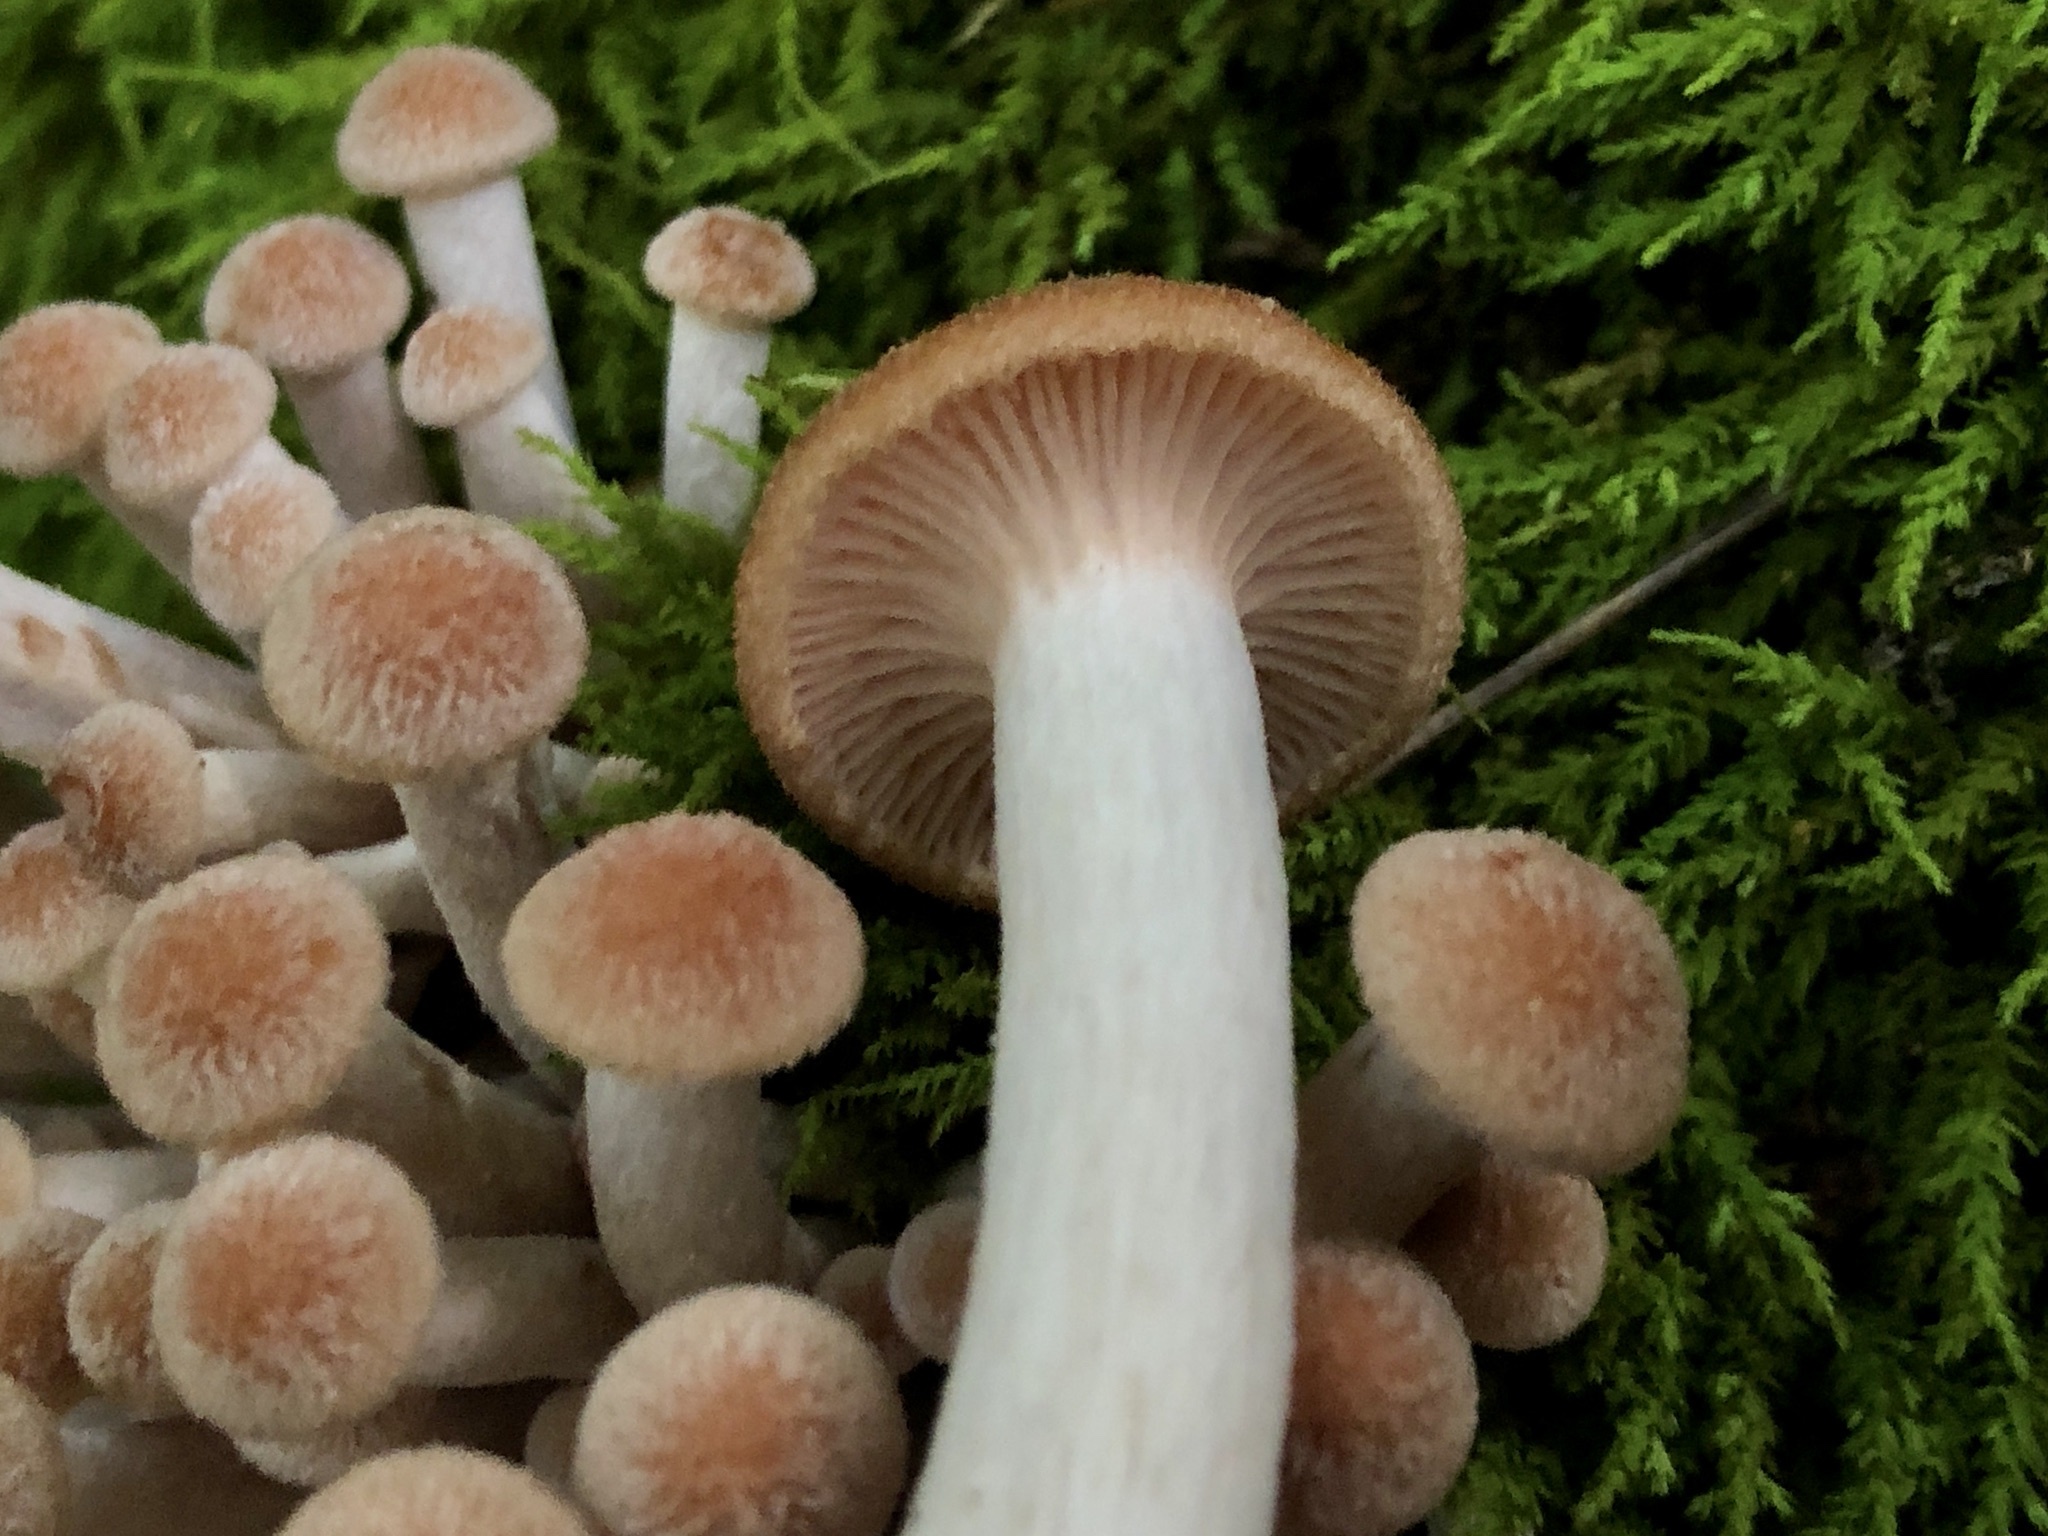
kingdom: Fungi
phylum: Basidiomycota
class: Agaricomycetes
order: Agaricales
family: Physalacriaceae
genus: Desarmillaria
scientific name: Desarmillaria caespitosa
